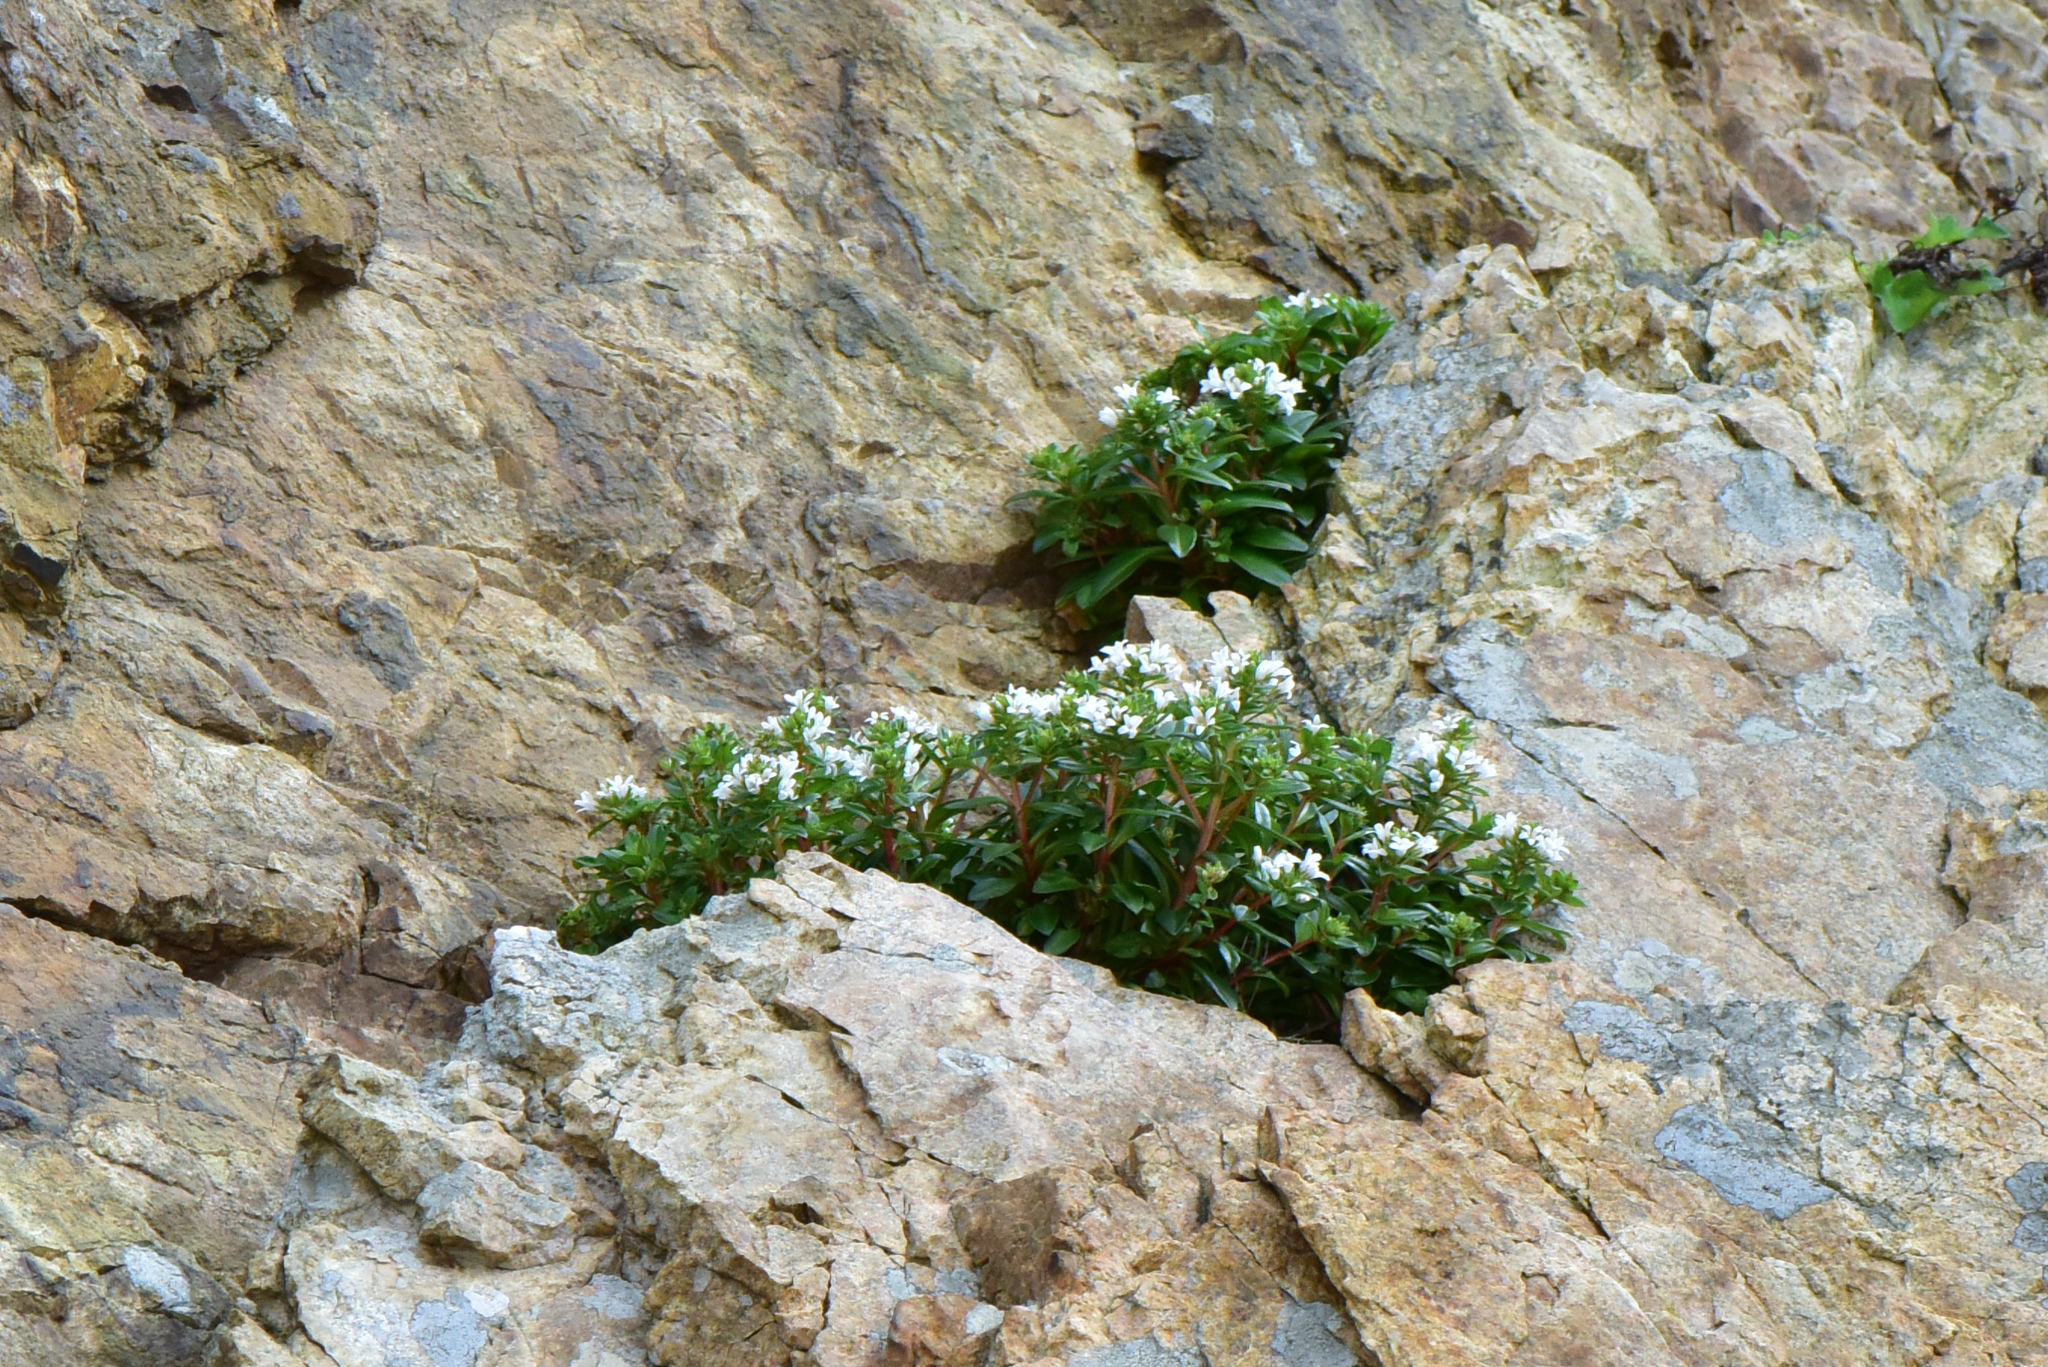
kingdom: Plantae
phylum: Tracheophyta
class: Magnoliopsida
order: Ericales
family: Primulaceae
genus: Lysimachia
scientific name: Lysimachia mauritiana
